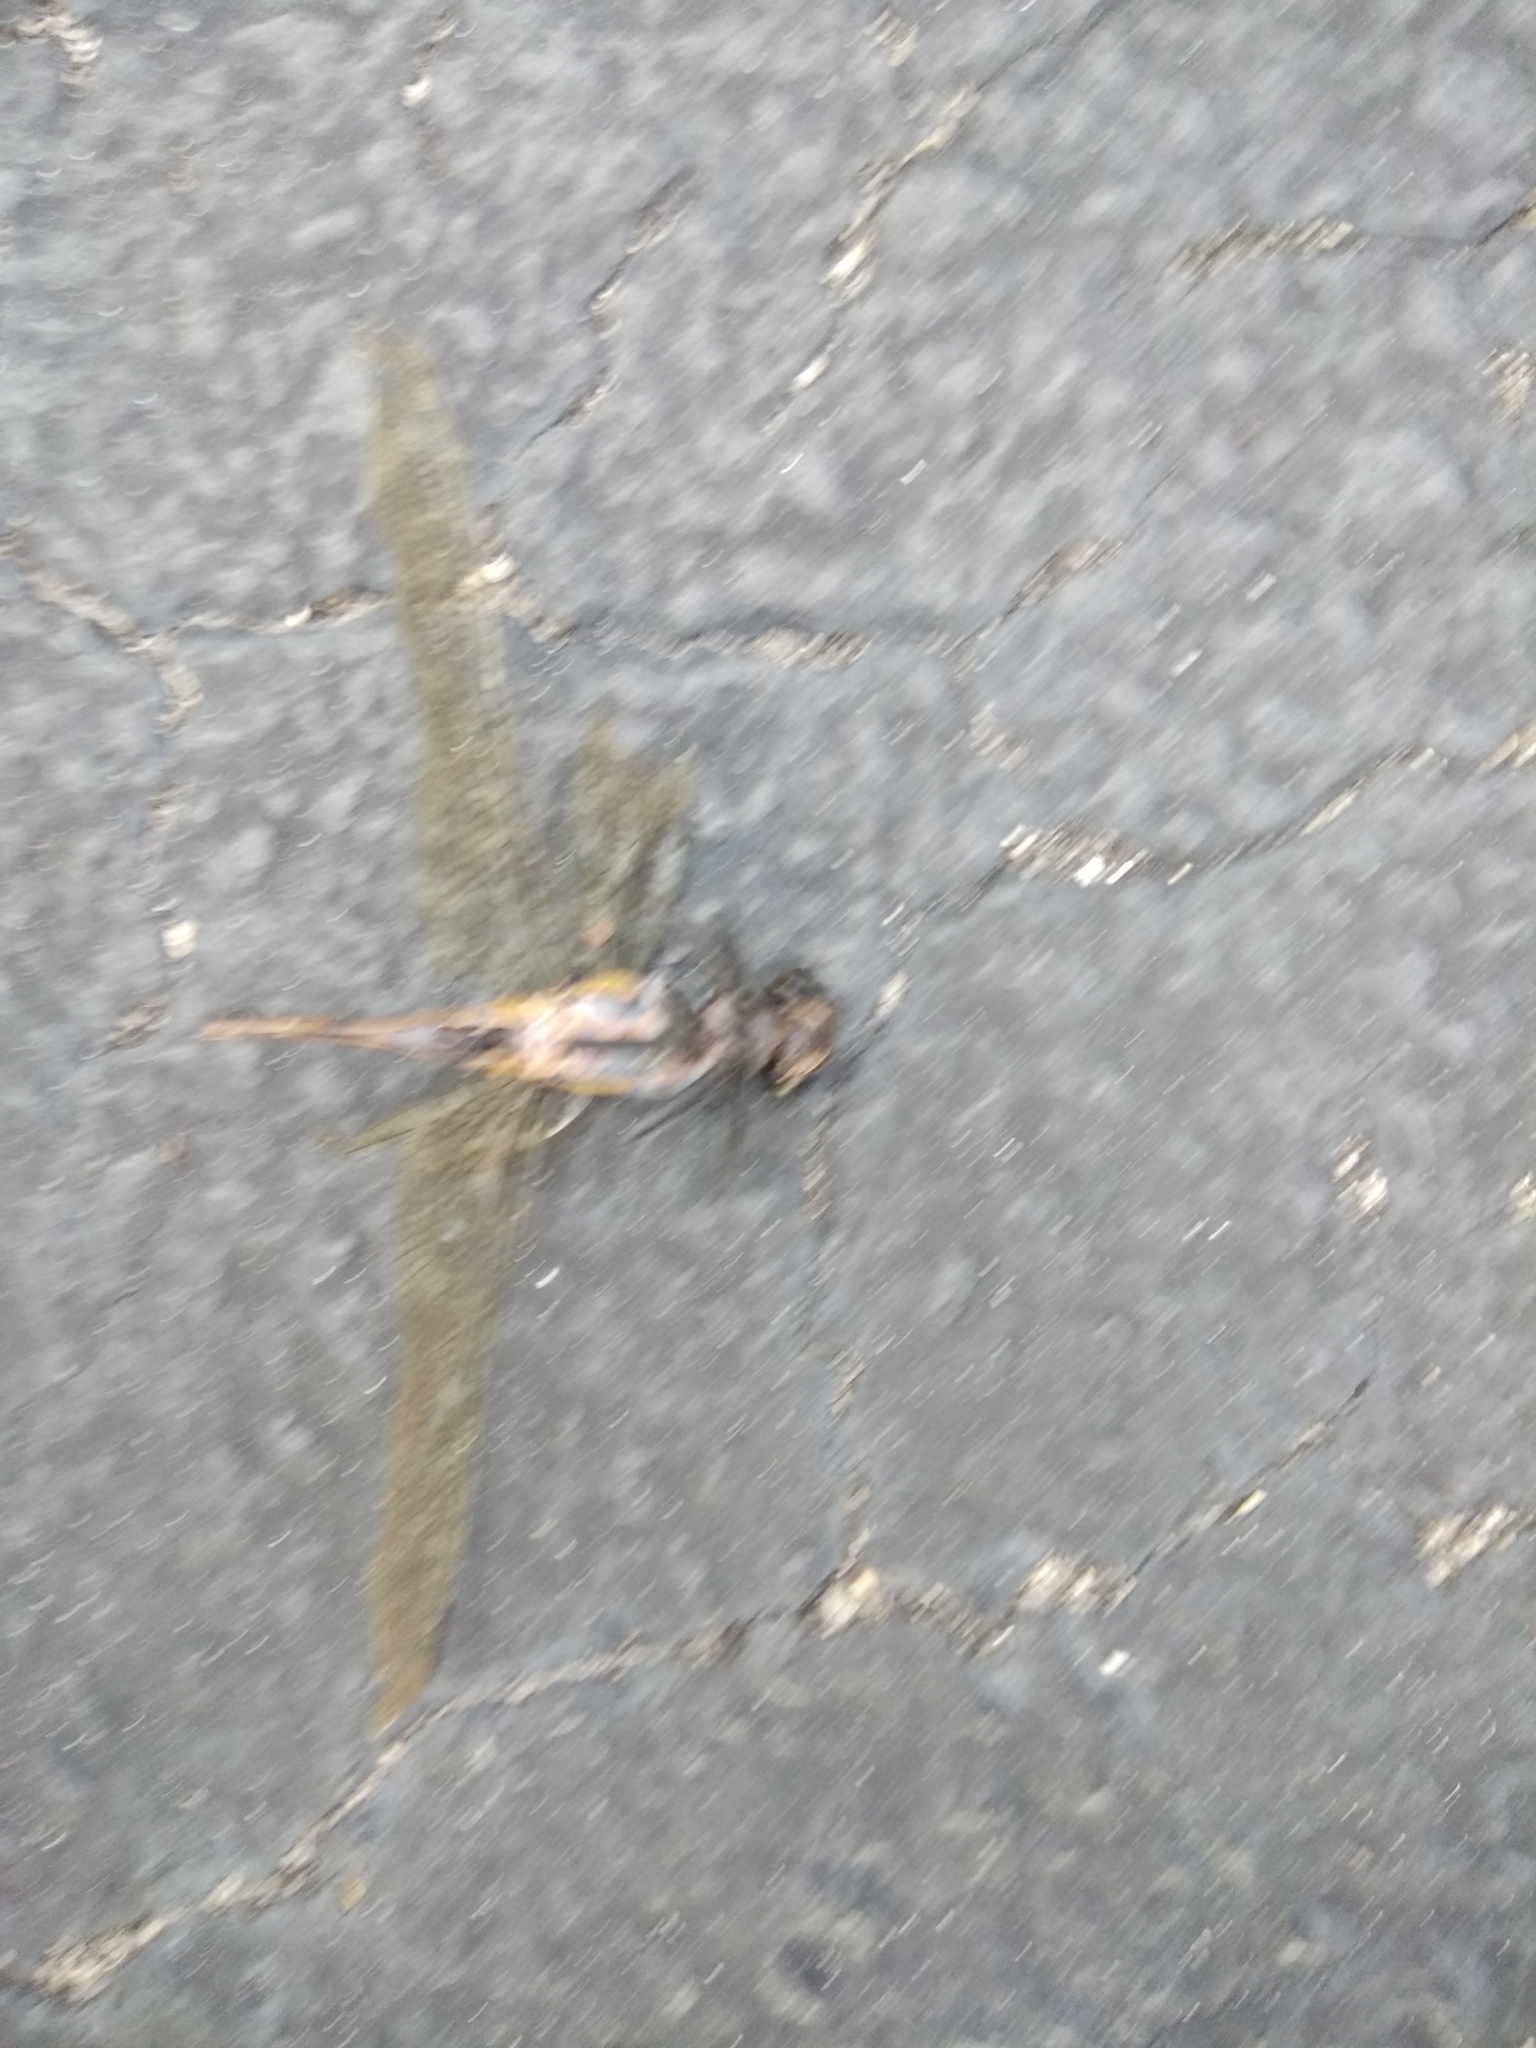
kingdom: Animalia
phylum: Arthropoda
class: Insecta
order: Odonata
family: Gomphidae
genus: Hagenius
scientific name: Hagenius brevistylus
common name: Dragonhunter
